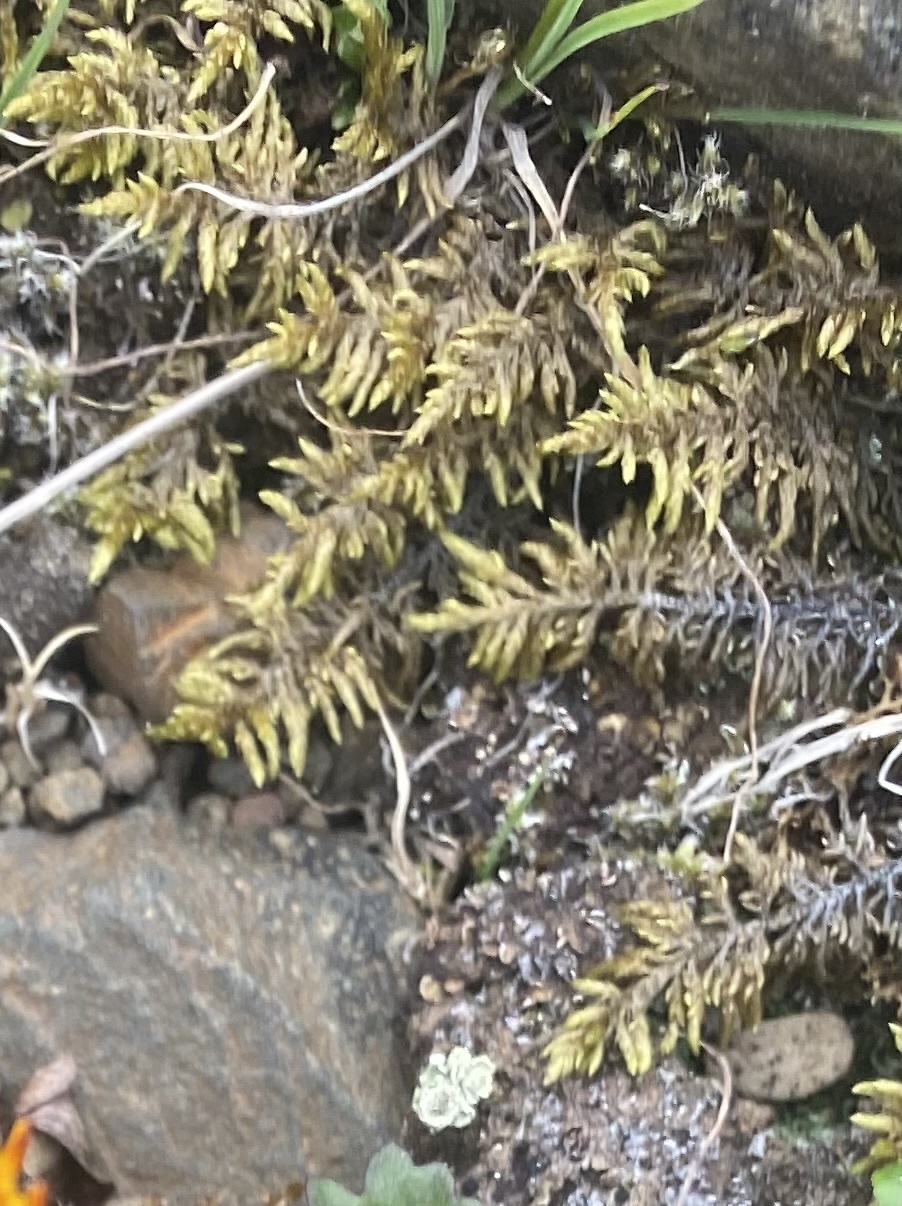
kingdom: Plantae
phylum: Bryophyta
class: Bryopsida
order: Hypnales
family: Thuidiaceae
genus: Abietinella
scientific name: Abietinella abietina
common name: Wiry fern moss
